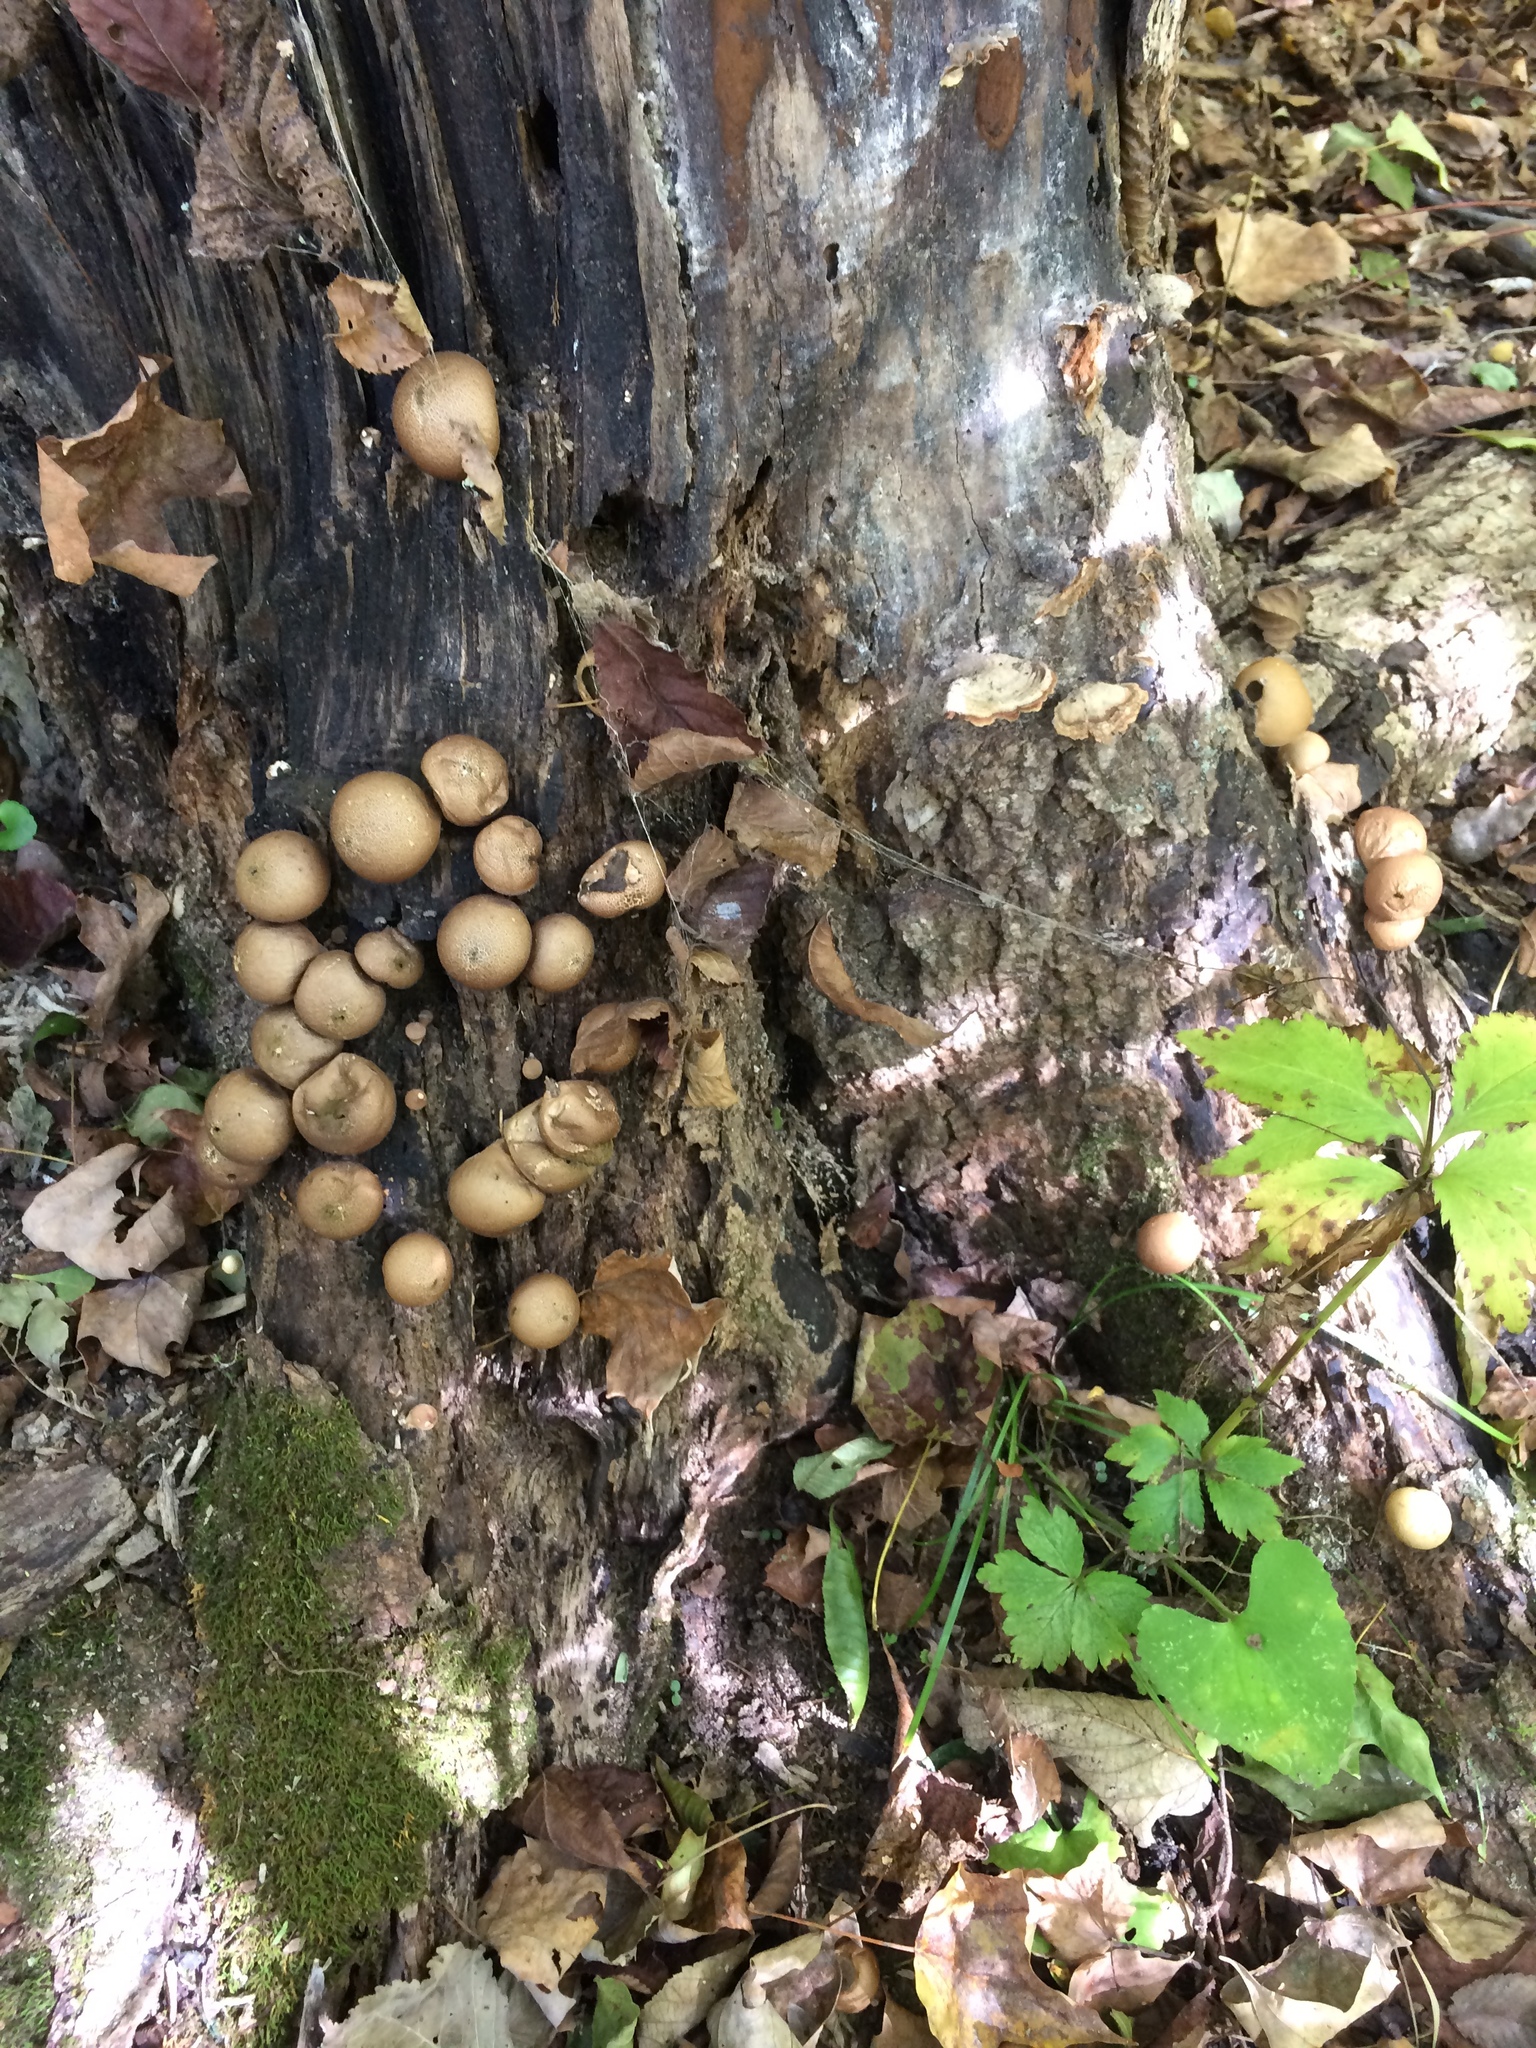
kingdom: Fungi
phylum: Basidiomycota
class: Agaricomycetes
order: Agaricales
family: Lycoperdaceae
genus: Apioperdon
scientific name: Apioperdon pyriforme
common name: Pear-shaped puffball
